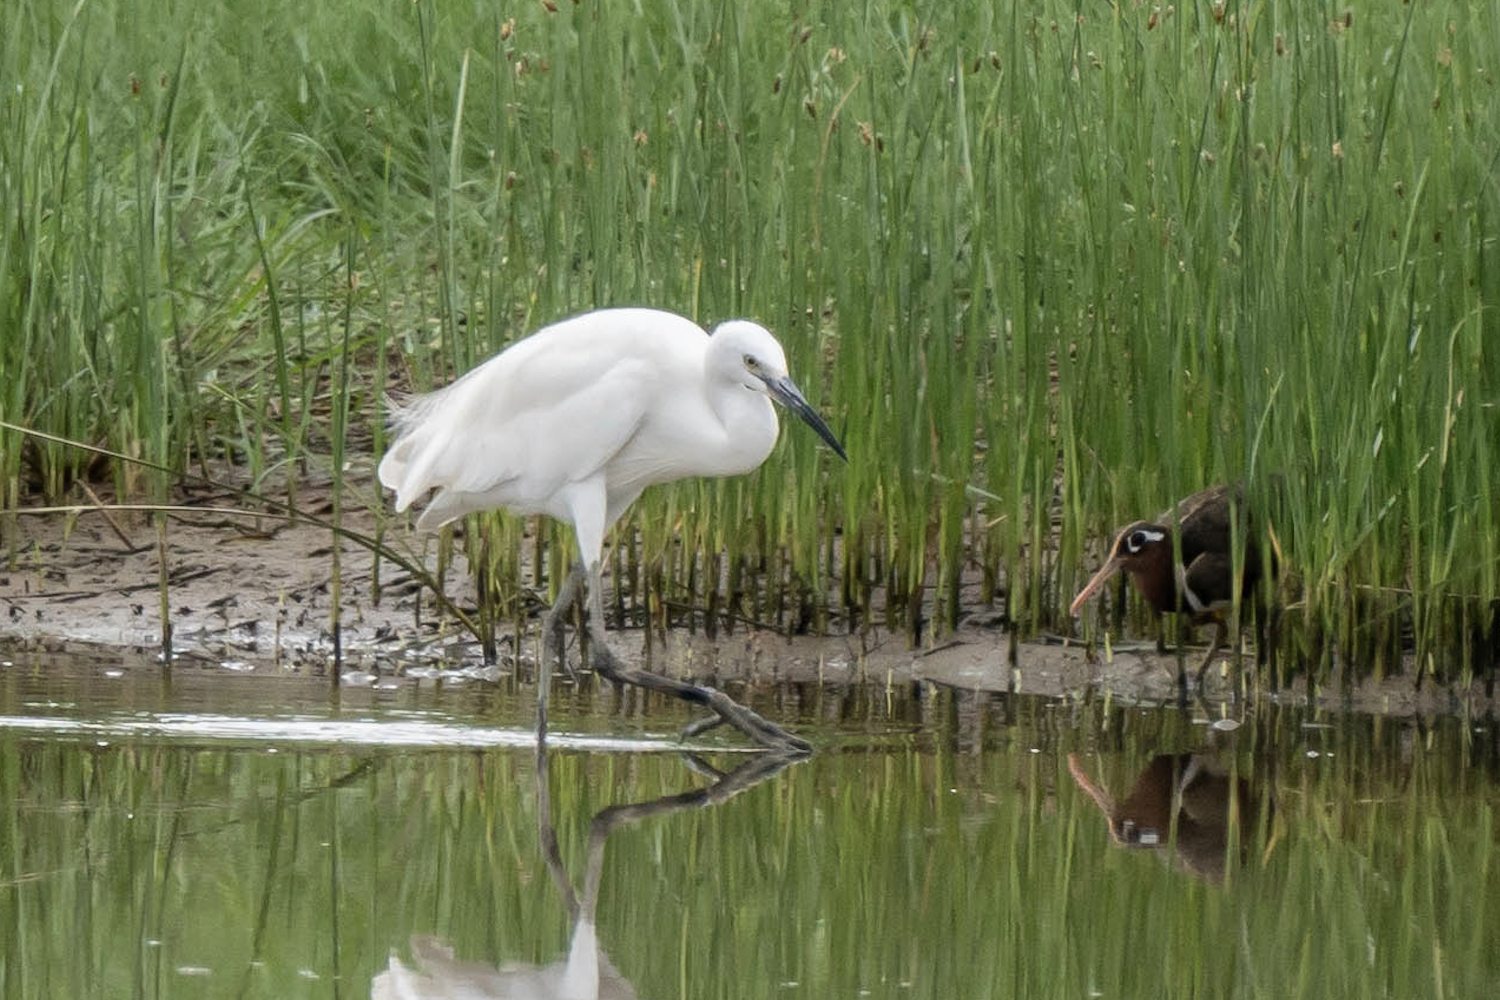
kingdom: Animalia
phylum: Chordata
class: Aves
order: Pelecaniformes
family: Ardeidae
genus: Egretta
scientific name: Egretta garzetta
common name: Little egret
